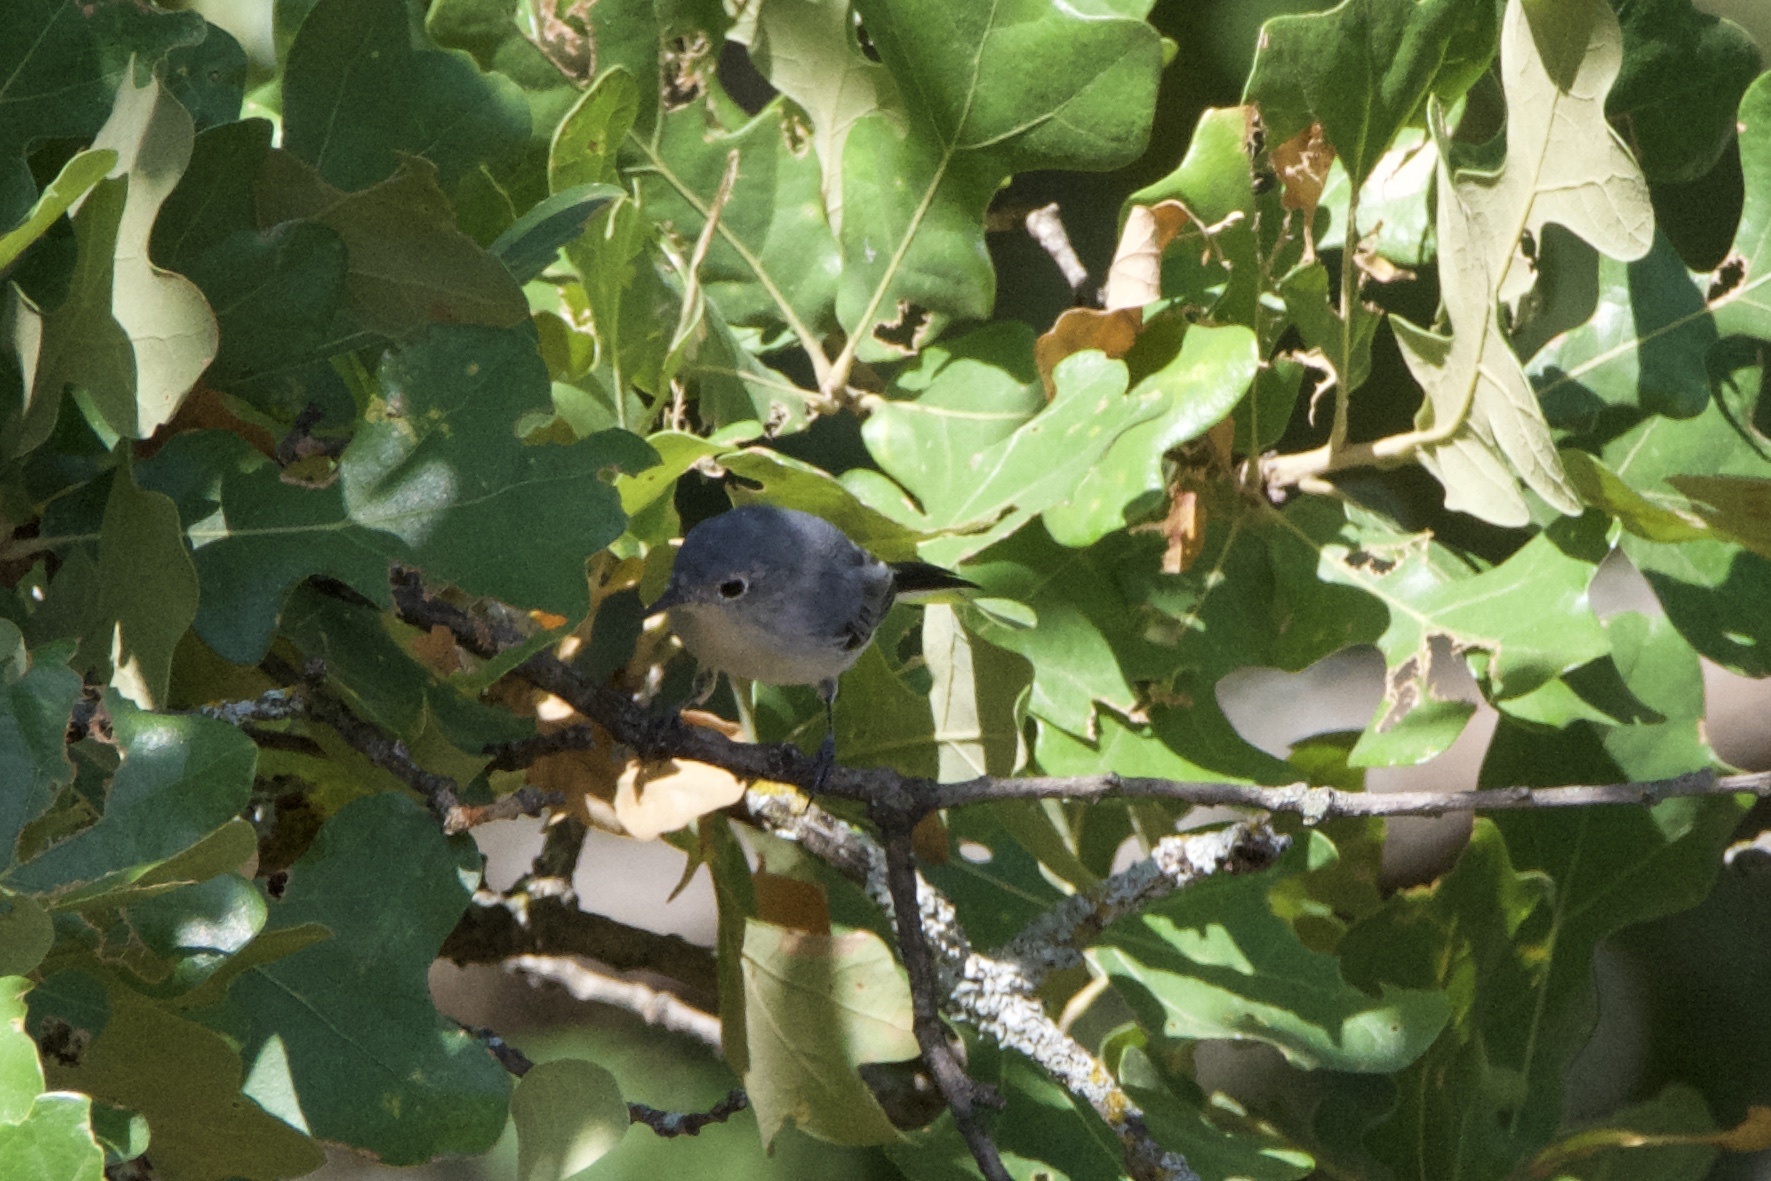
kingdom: Animalia
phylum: Chordata
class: Aves
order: Passeriformes
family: Polioptilidae
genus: Polioptila
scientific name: Polioptila caerulea
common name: Blue-gray gnatcatcher
